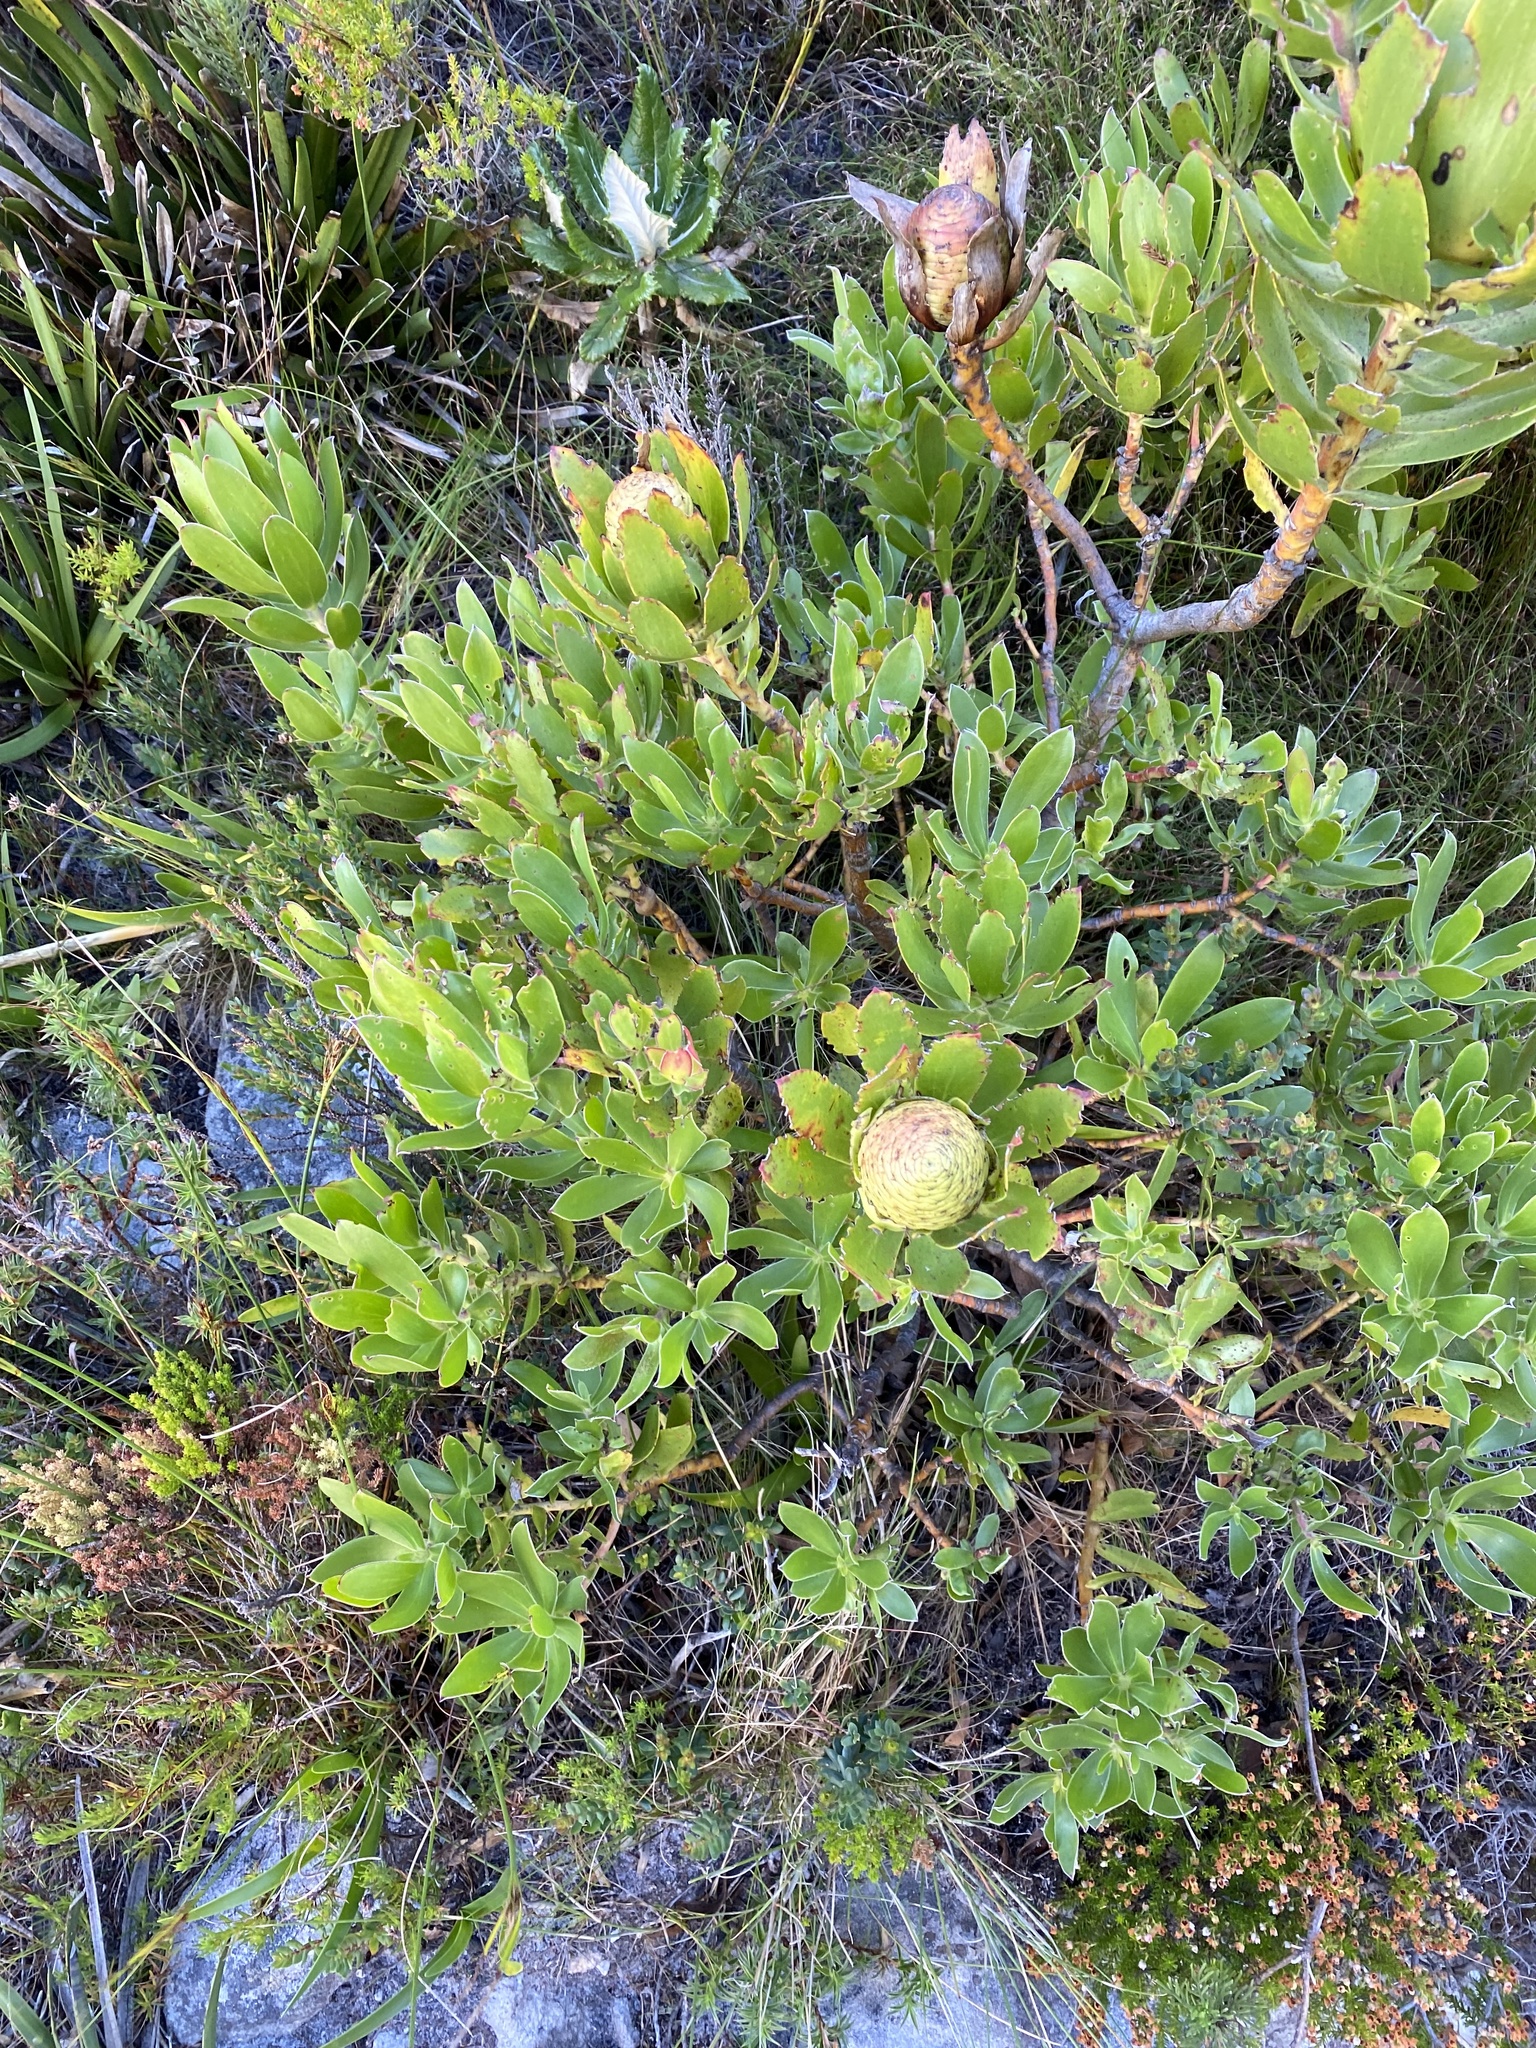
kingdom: Plantae
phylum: Tracheophyta
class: Magnoliopsida
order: Proteales
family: Proteaceae
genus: Leucadendron
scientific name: Leucadendron strobilinum
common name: Mountain rose
